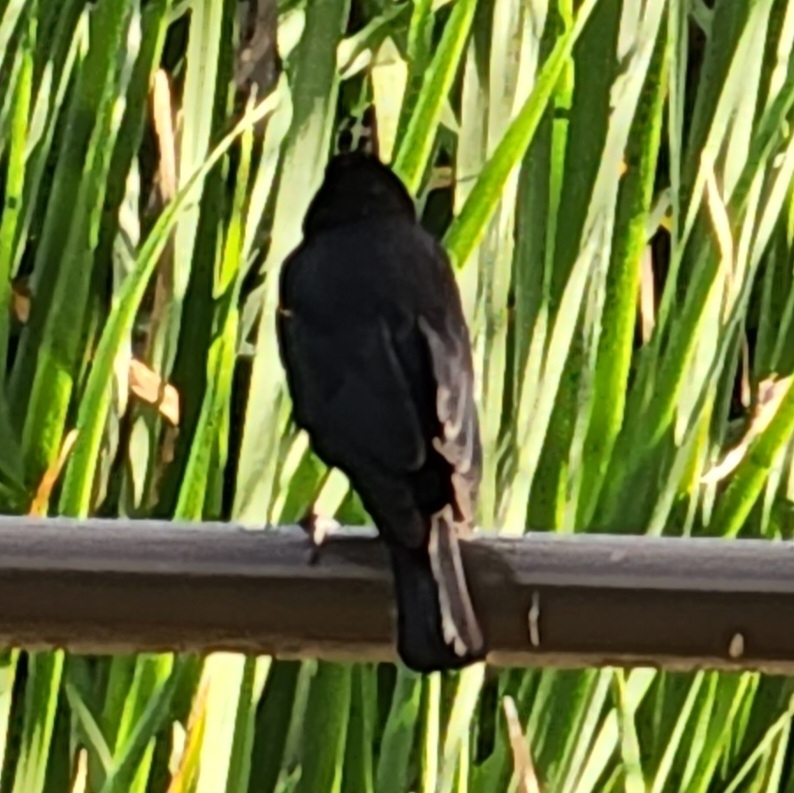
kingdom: Animalia
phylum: Chordata
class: Aves
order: Passeriformes
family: Icteridae
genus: Agelaius
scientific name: Agelaius phoeniceus
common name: Red-winged blackbird
